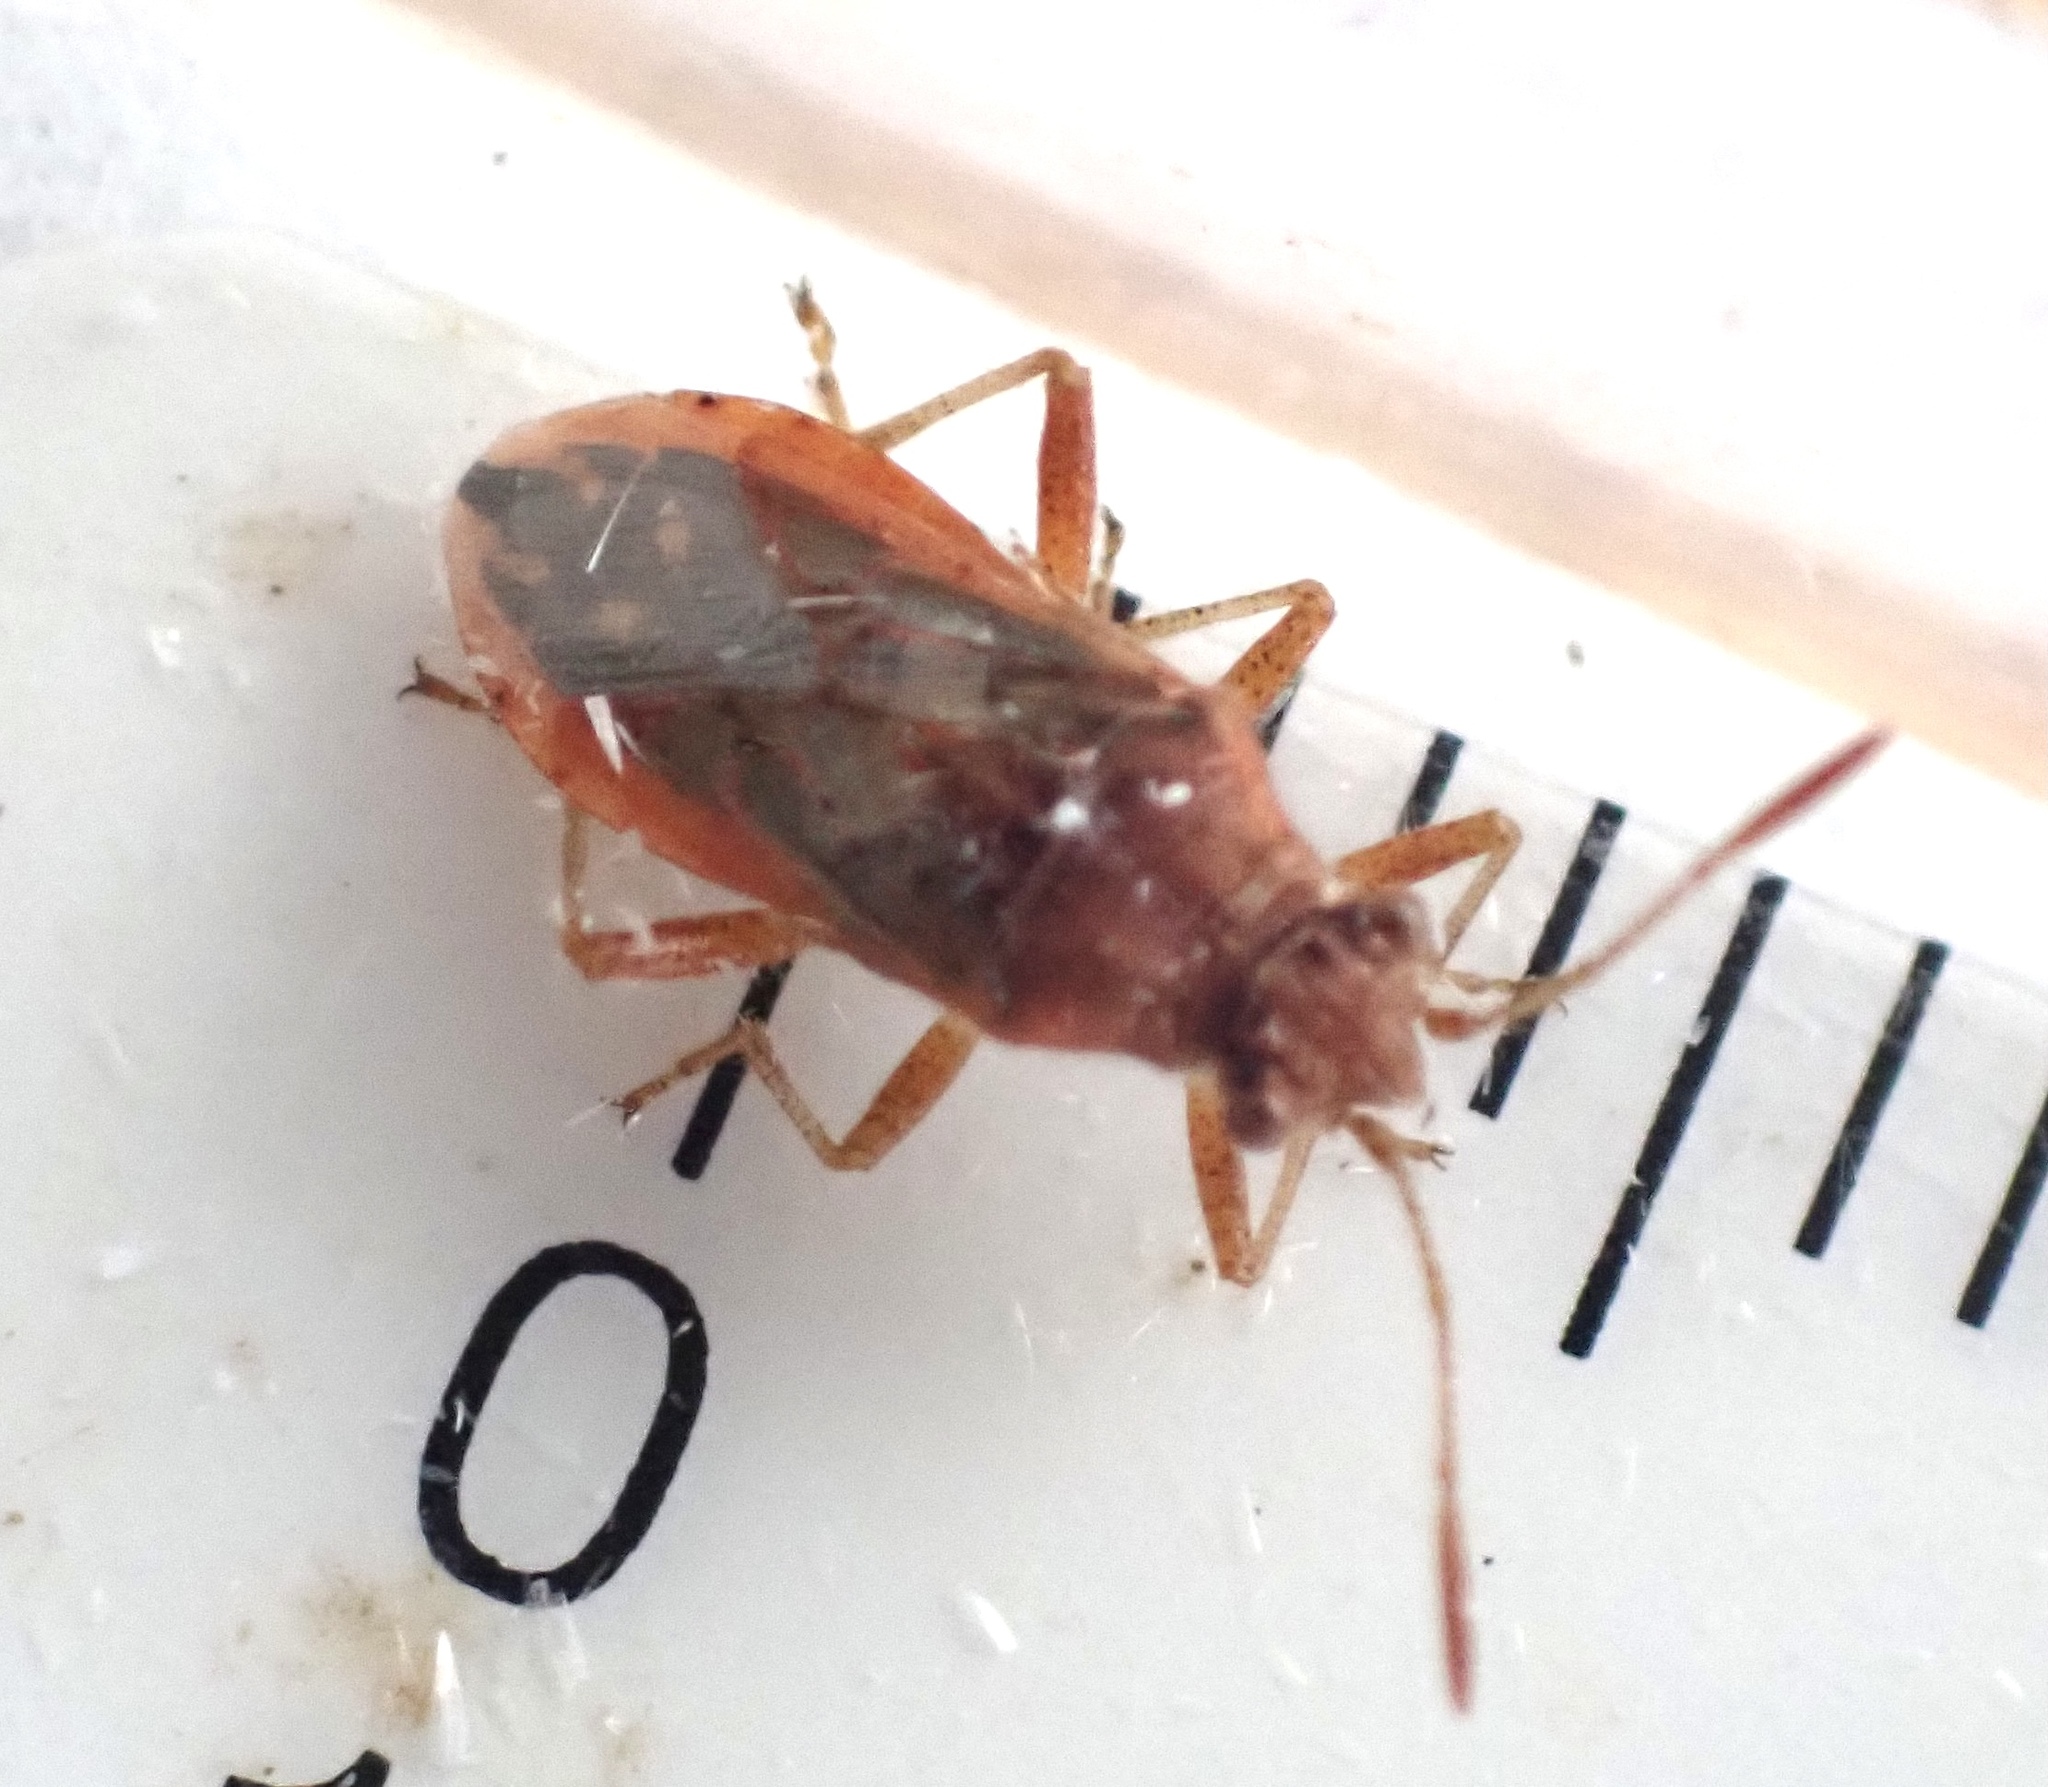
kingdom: Animalia
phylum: Arthropoda
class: Insecta
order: Hemiptera
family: Rhopalidae
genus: Liorhyssus
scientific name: Liorhyssus hyalinus
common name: Scentless plant bug
